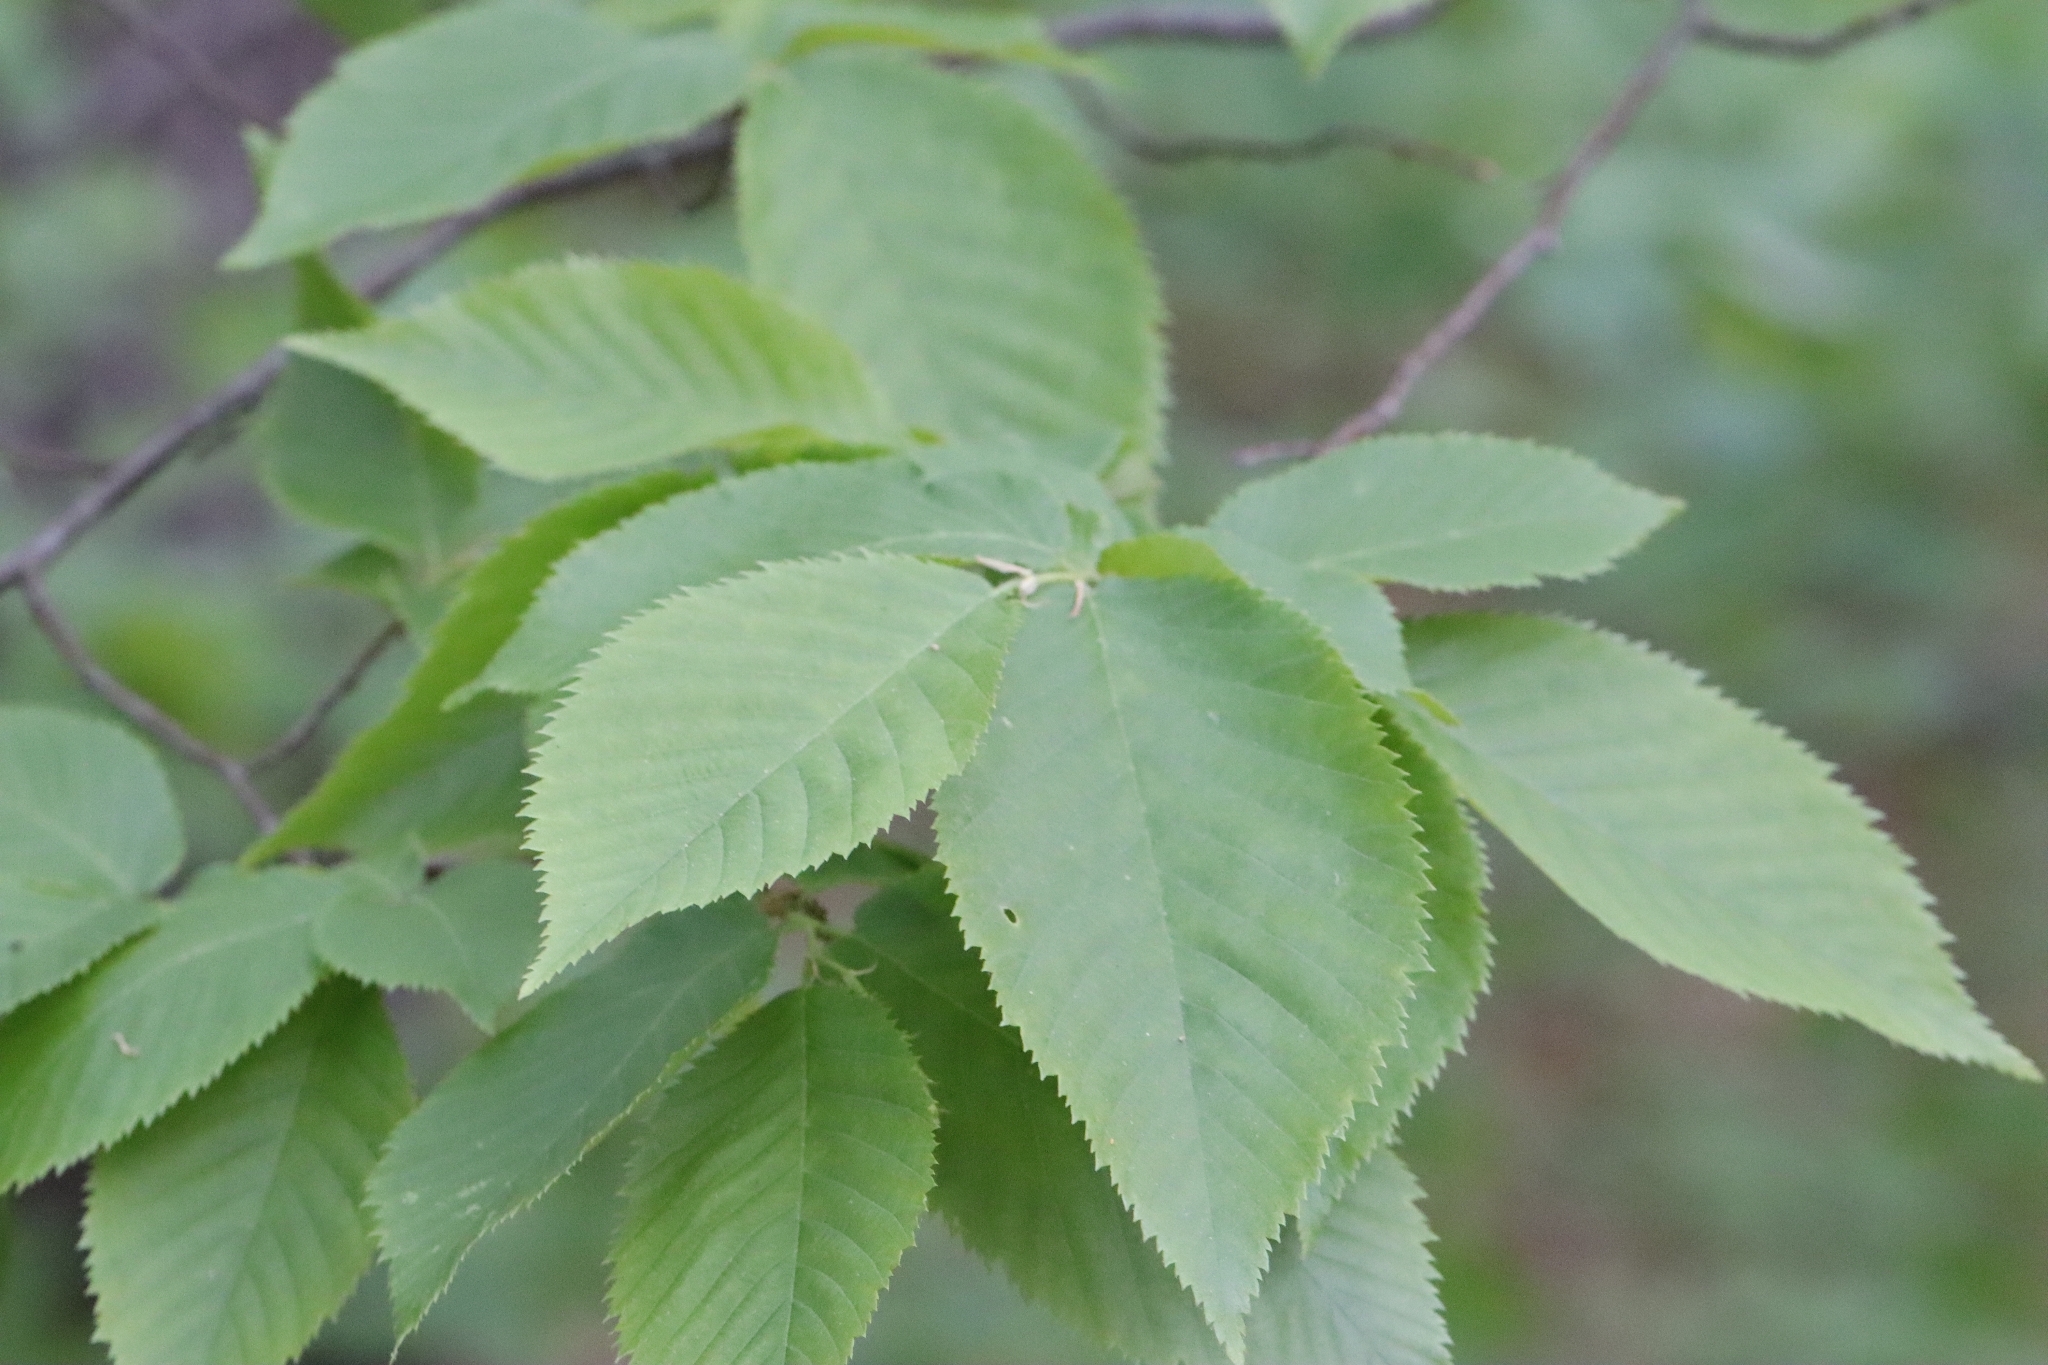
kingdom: Plantae
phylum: Tracheophyta
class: Magnoliopsida
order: Fagales
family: Betulaceae
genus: Ostrya
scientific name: Ostrya virginiana
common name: Ironwood
